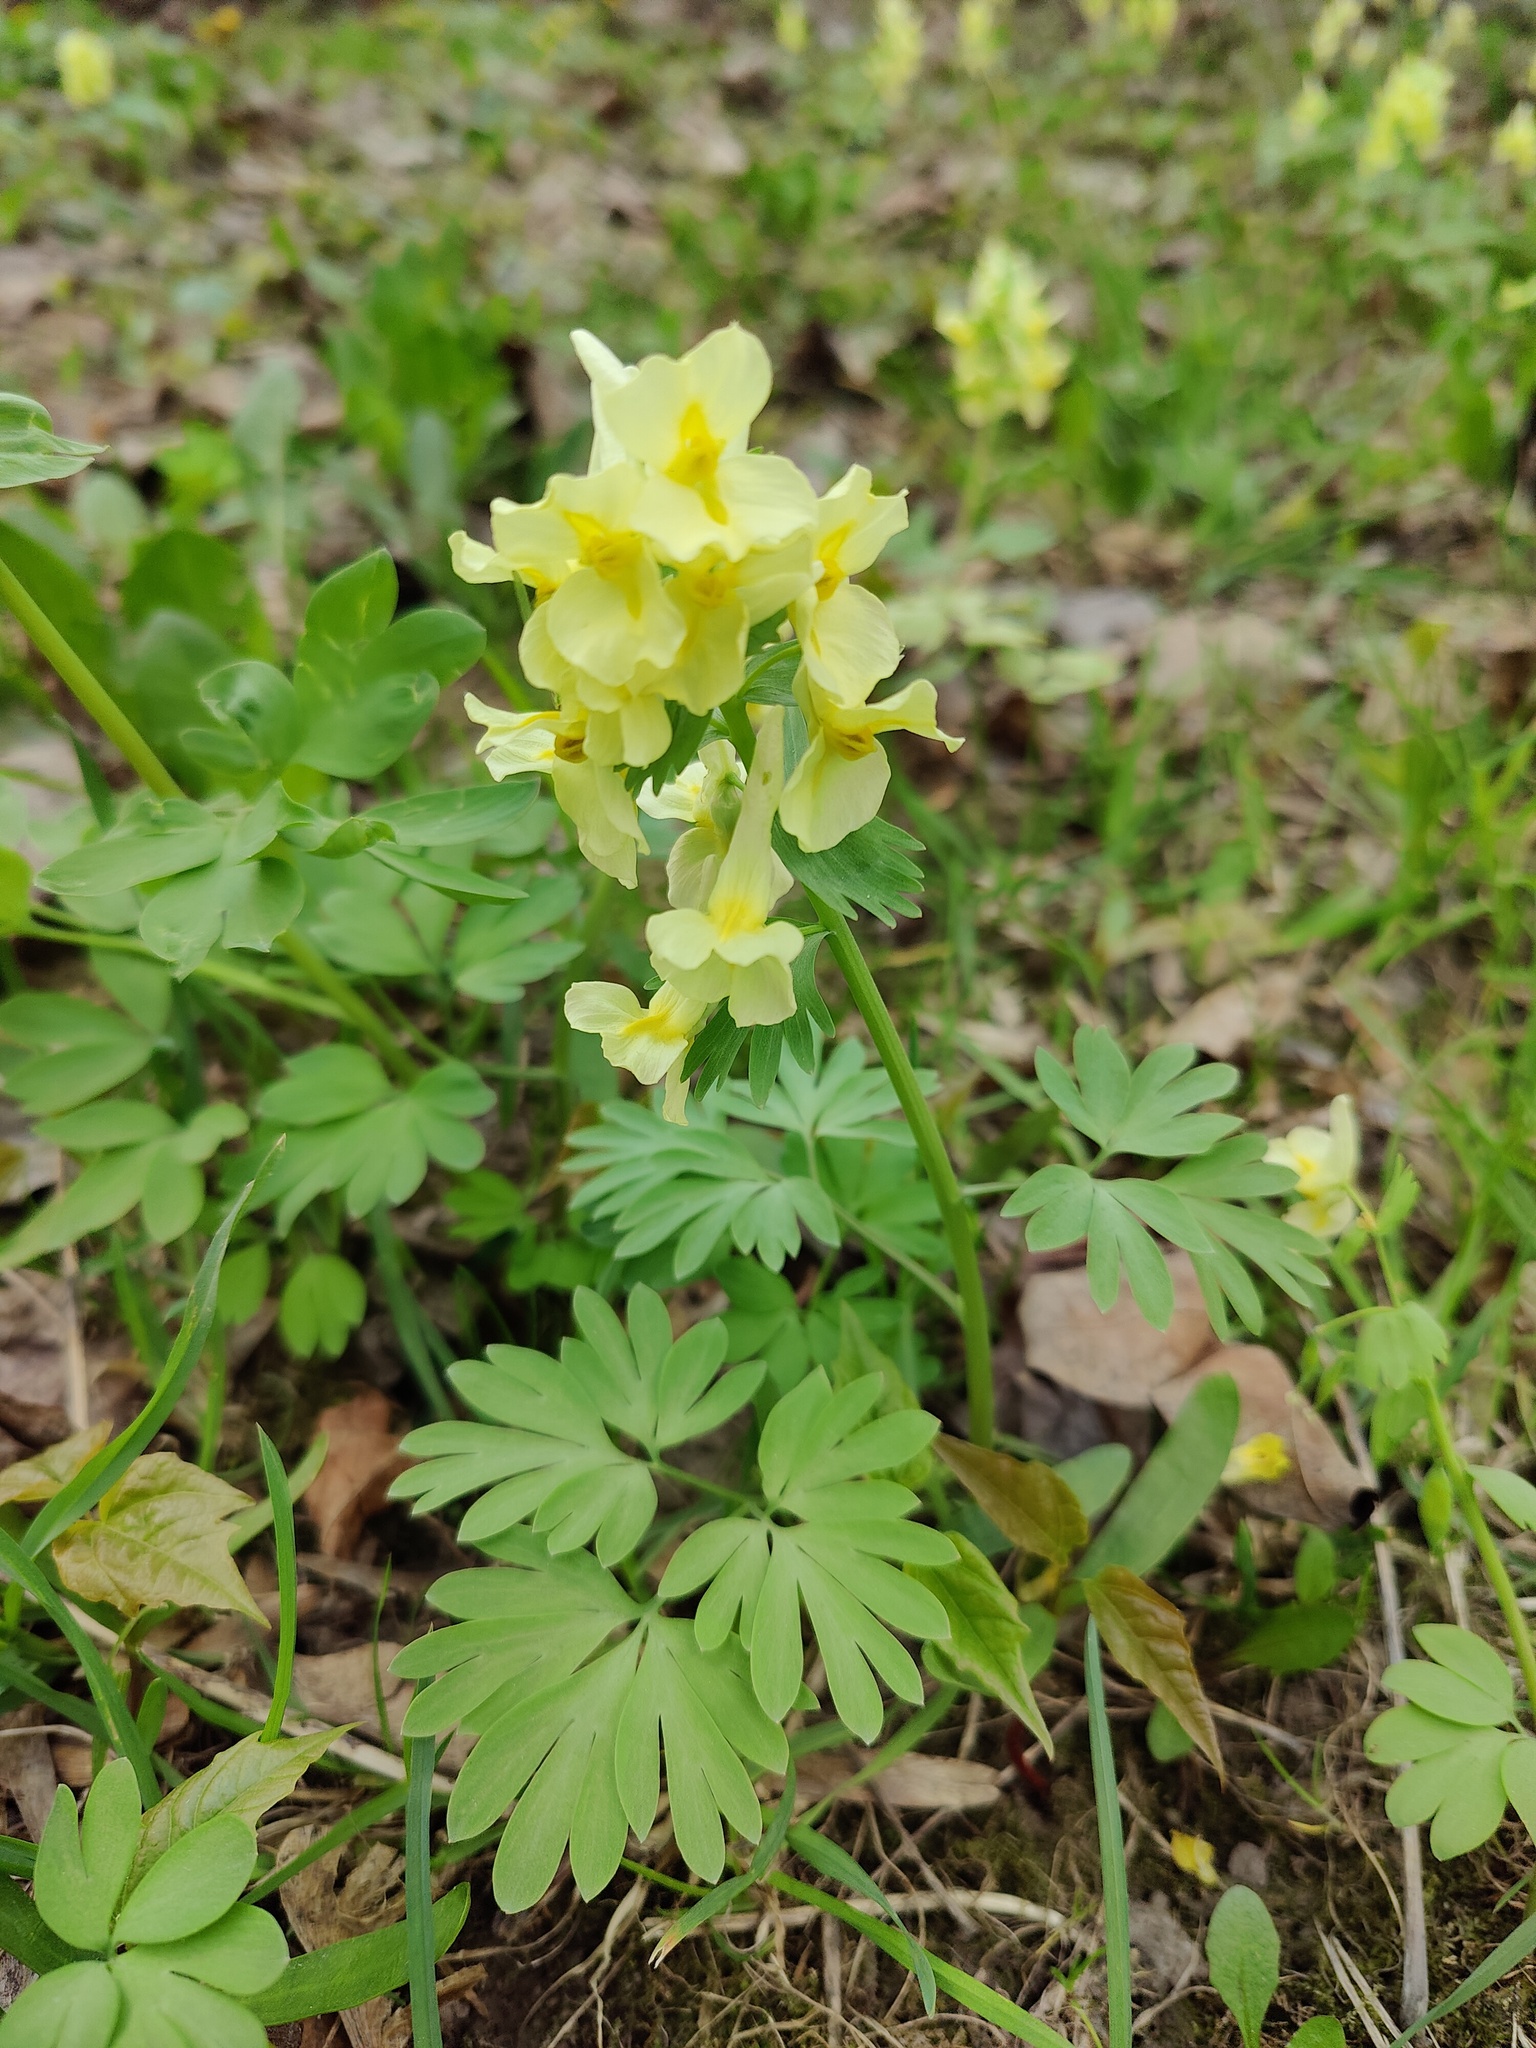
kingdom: Plantae
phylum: Tracheophyta
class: Magnoliopsida
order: Ranunculales
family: Papaveraceae
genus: Corydalis
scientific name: Corydalis bracteata
